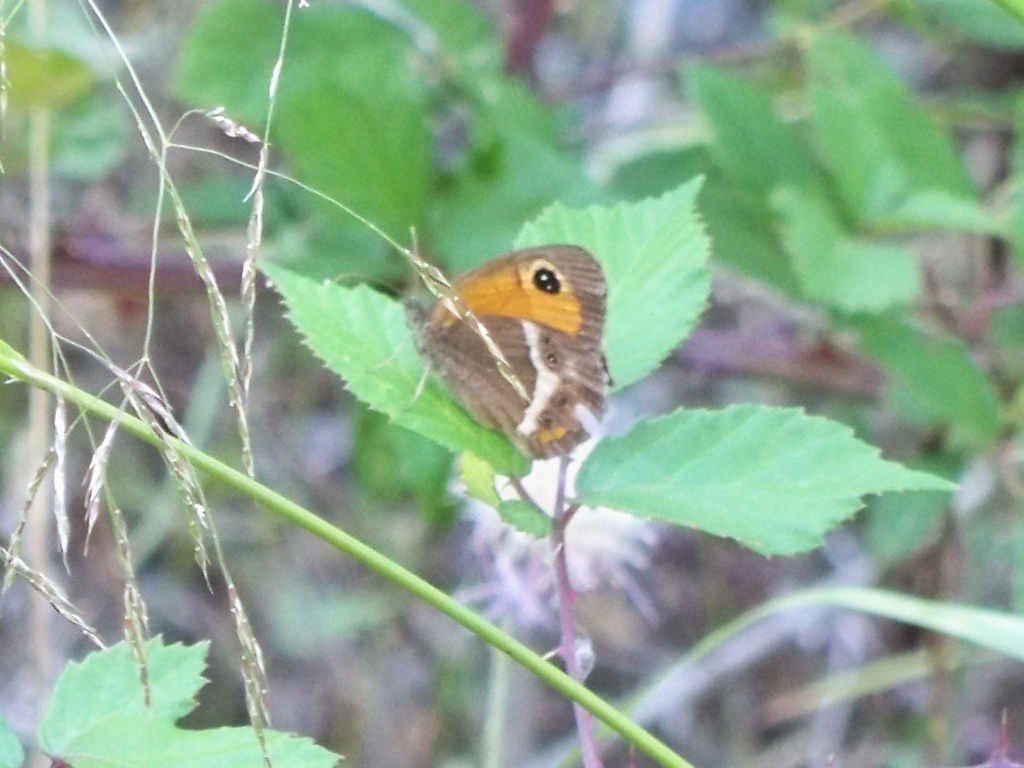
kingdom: Animalia
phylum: Arthropoda
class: Insecta
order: Lepidoptera
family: Nymphalidae
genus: Pyronia
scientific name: Pyronia bathseba
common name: Spanish gatekeeper
